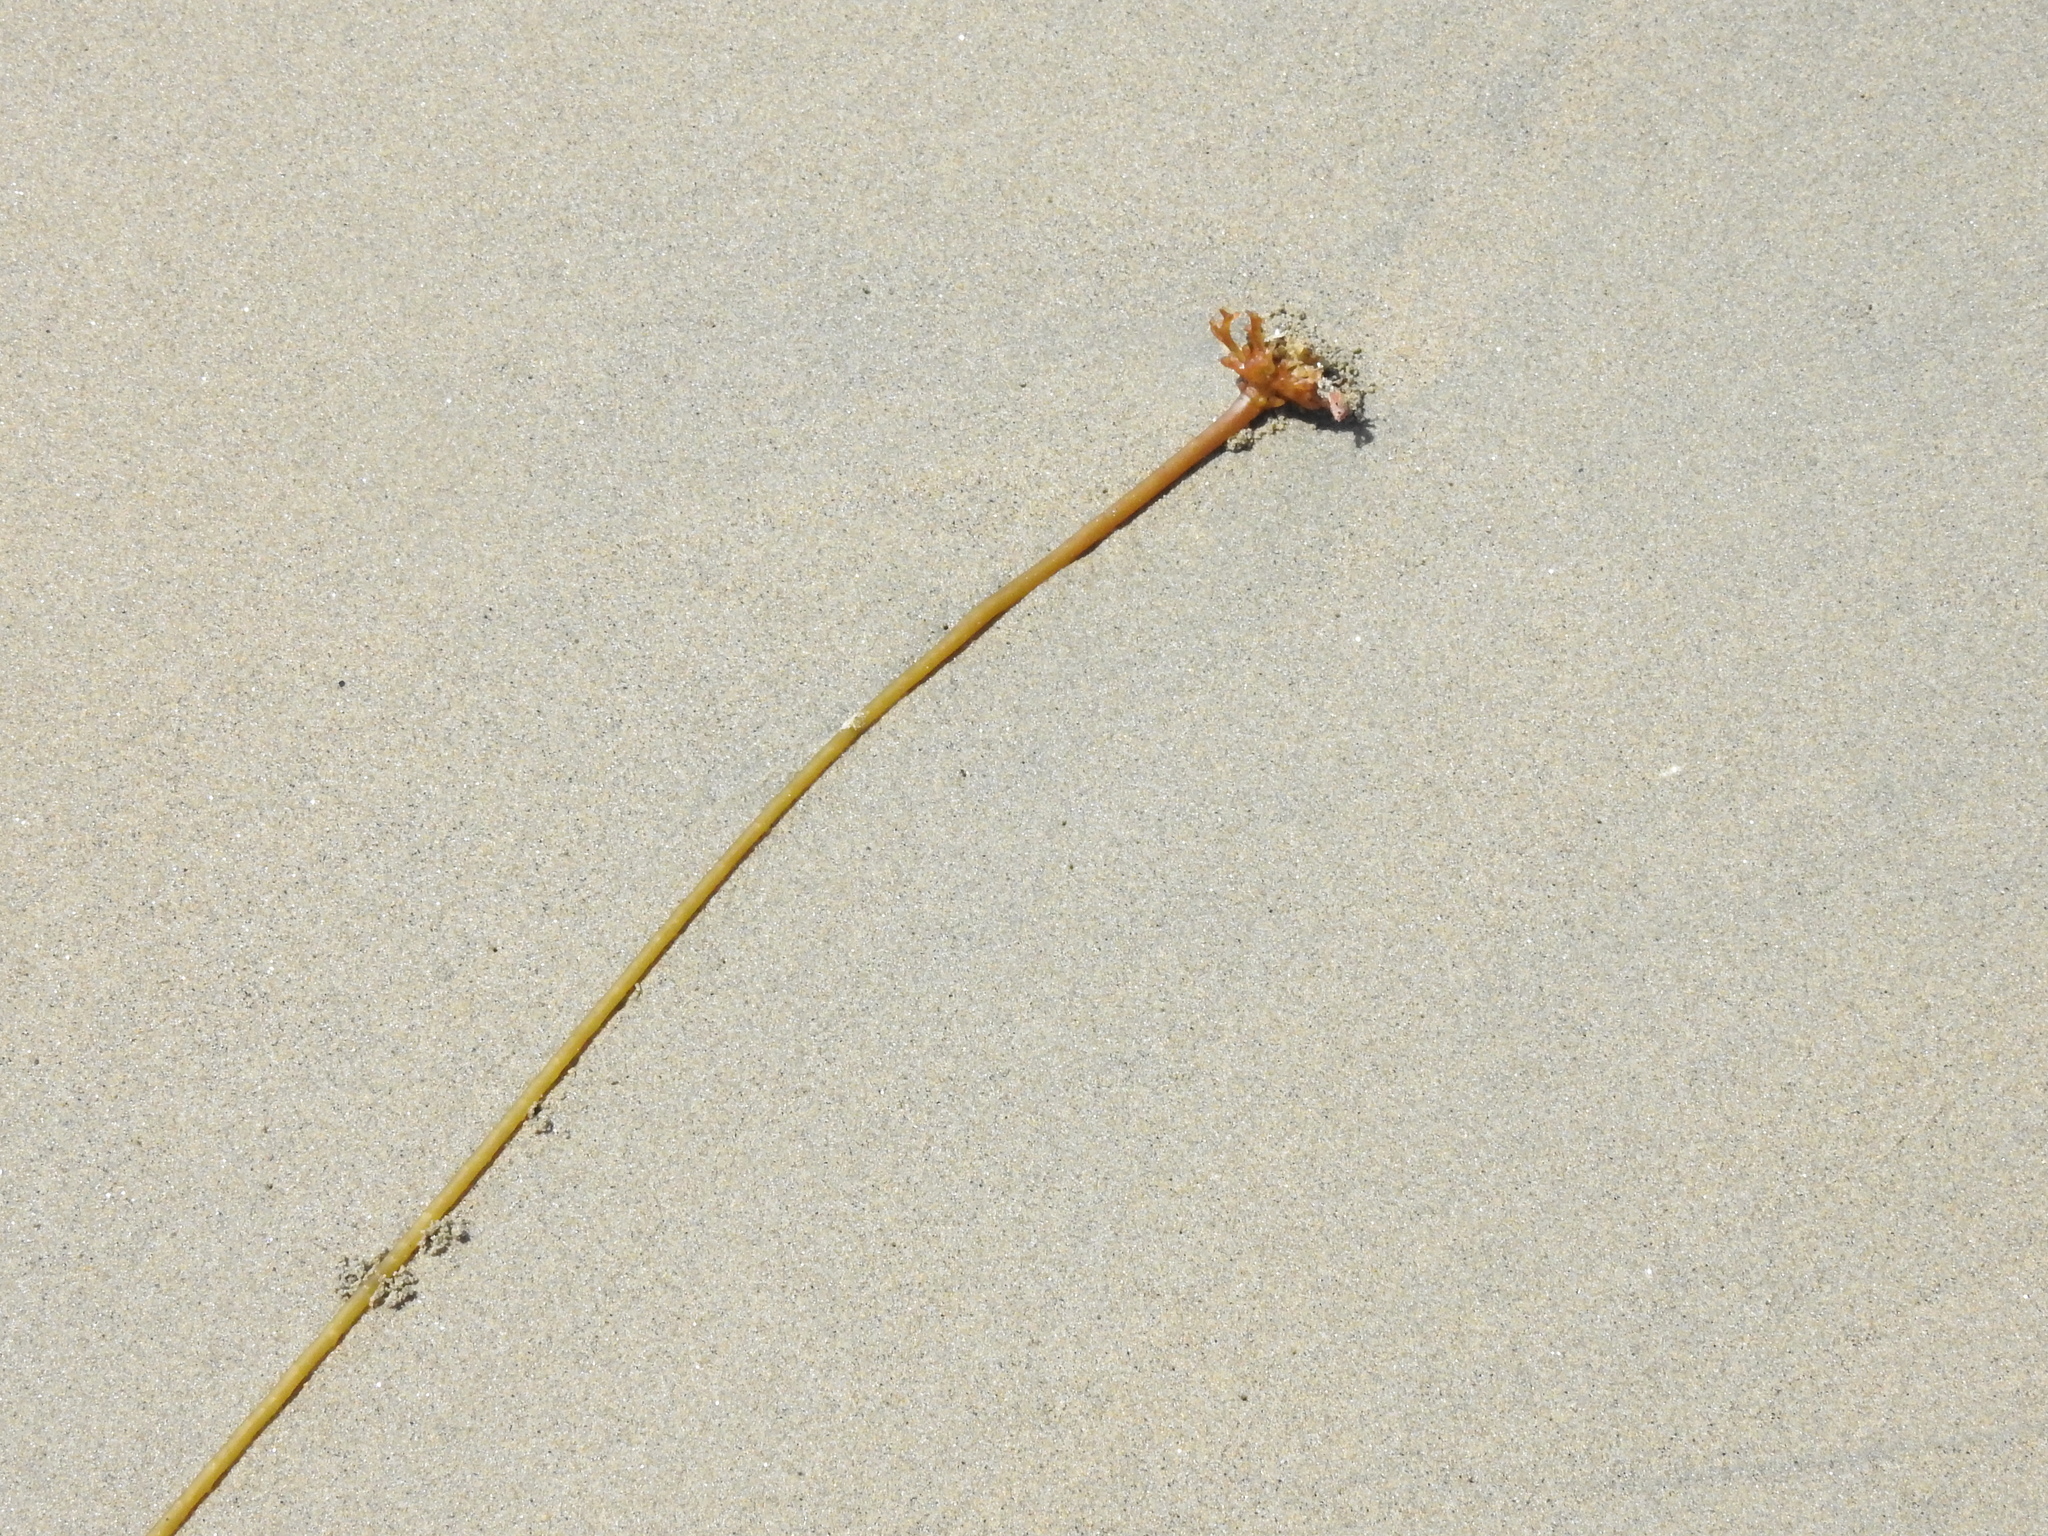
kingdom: Chromista
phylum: Ochrophyta
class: Phaeophyceae
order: Laminariales
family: Laminariaceae
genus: Nereocystis
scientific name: Nereocystis luetkeana
